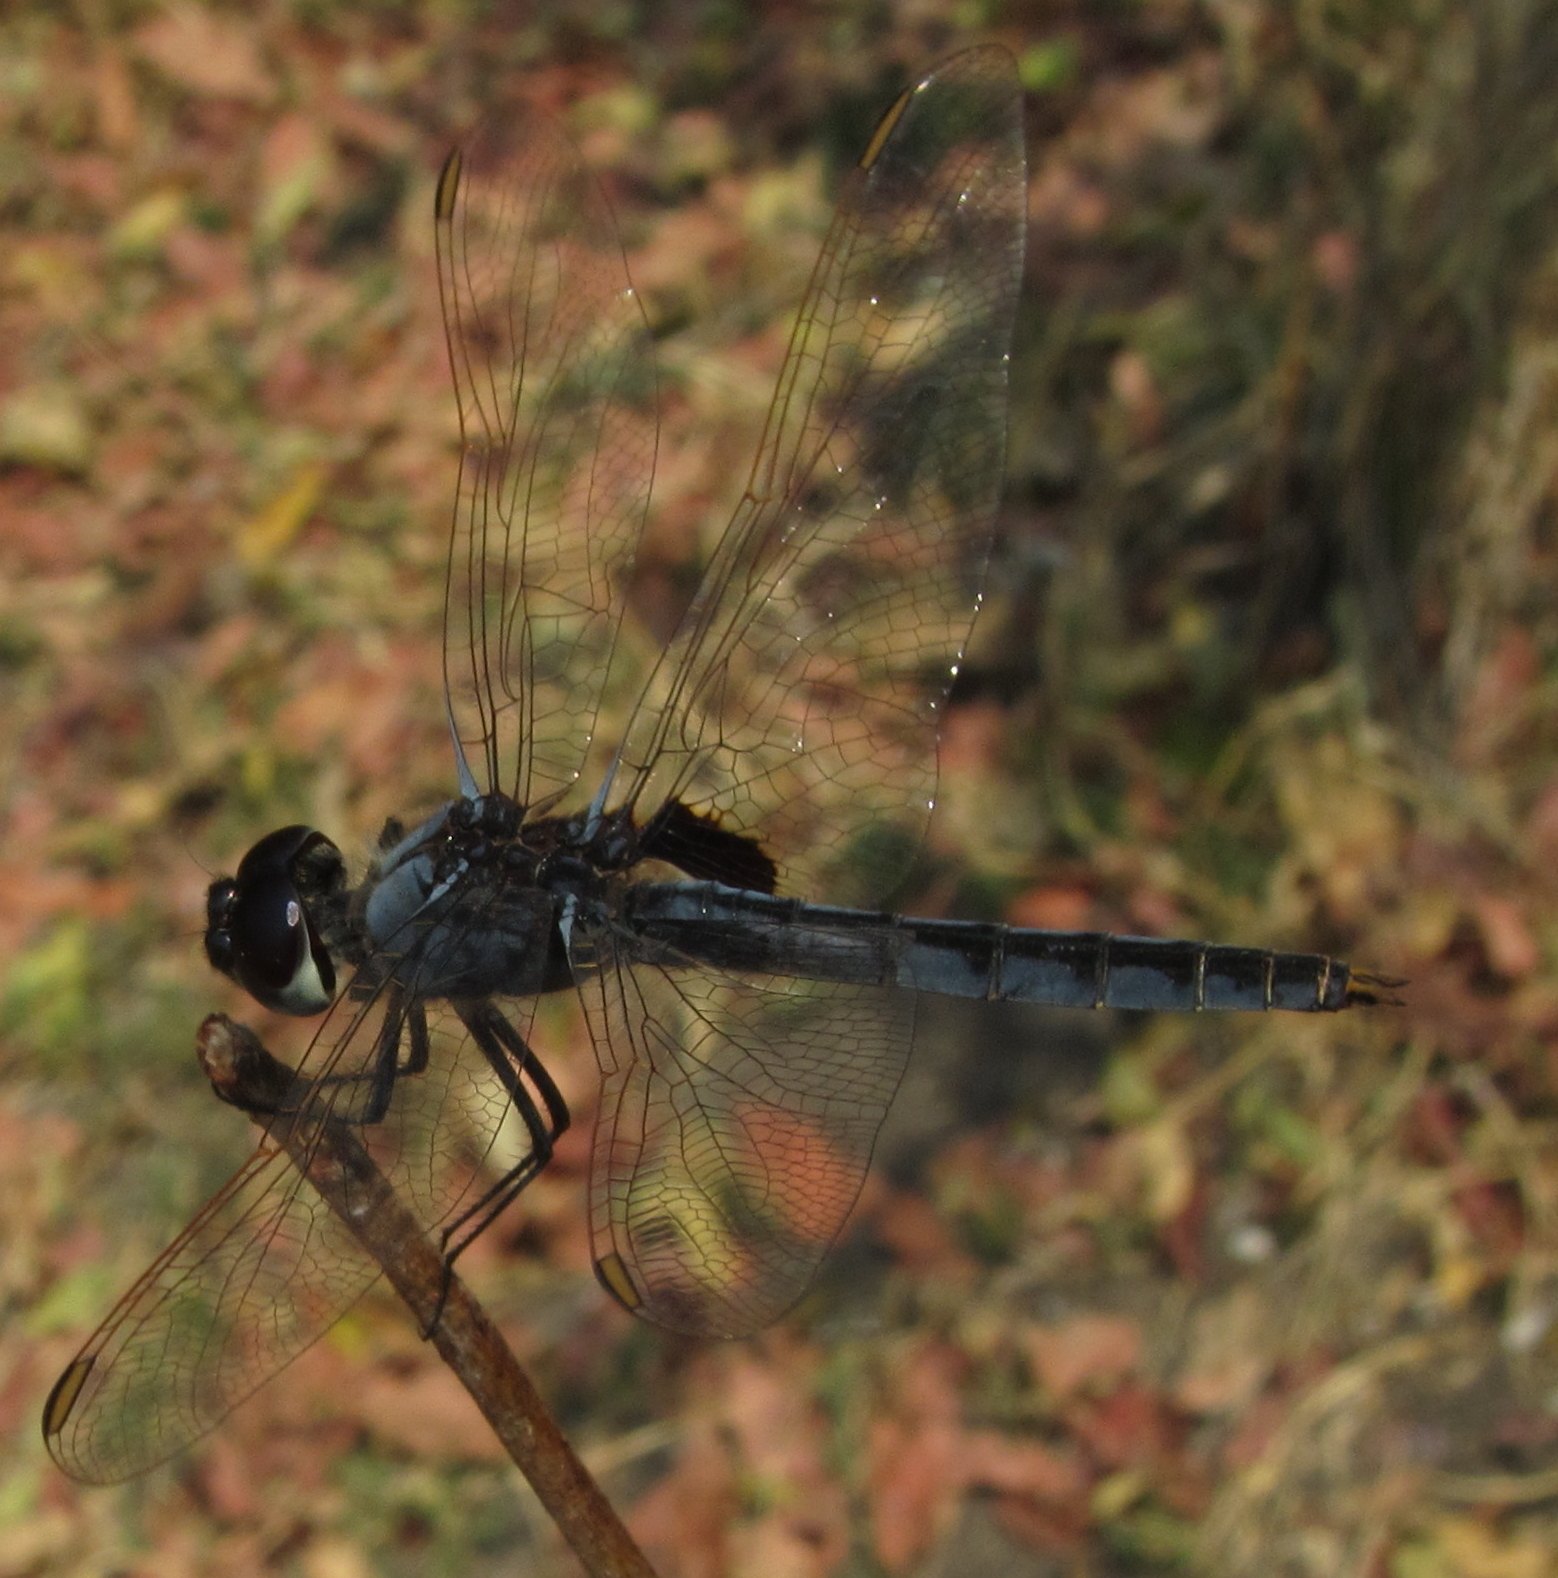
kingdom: Animalia
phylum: Arthropoda
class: Insecta
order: Odonata
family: Libellulidae
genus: Urothemis
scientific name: Urothemis edwardsii
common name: Blue basker
